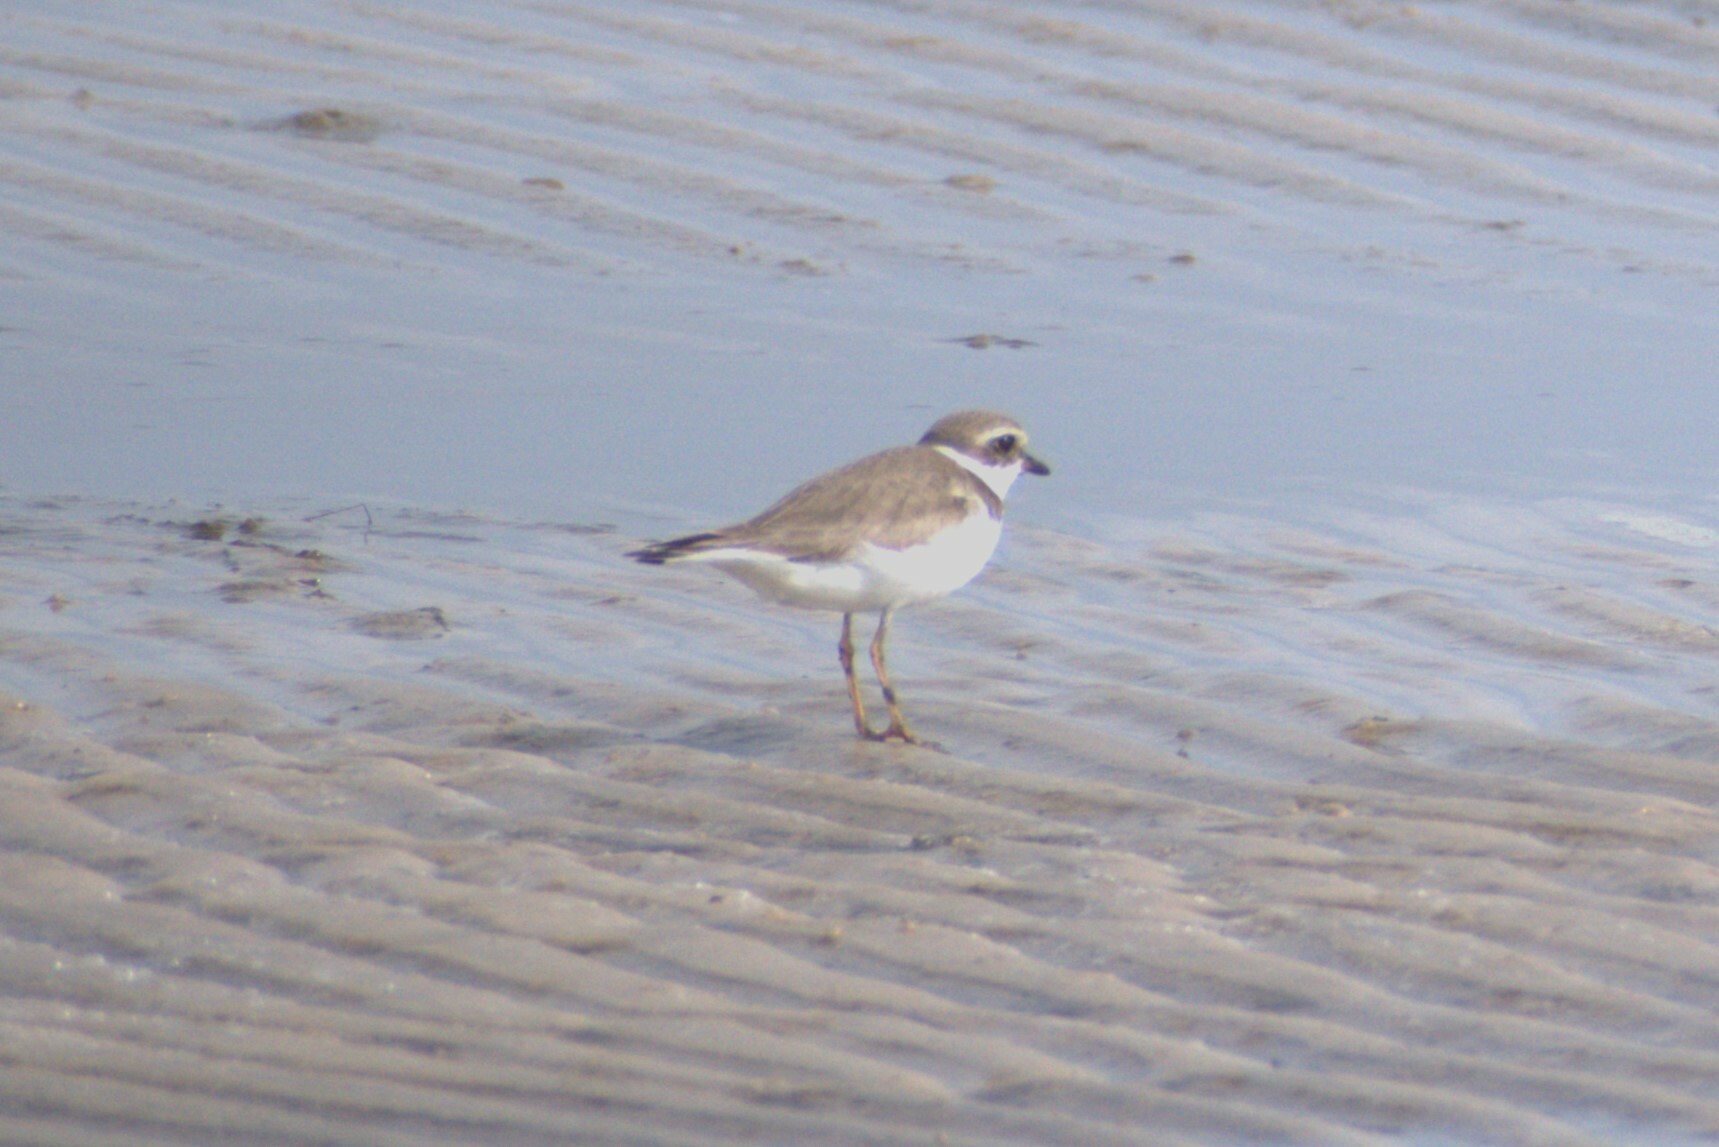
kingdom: Animalia
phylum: Chordata
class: Aves
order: Charadriiformes
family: Charadriidae
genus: Charadrius
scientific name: Charadrius semipalmatus
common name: Semipalmated plover
